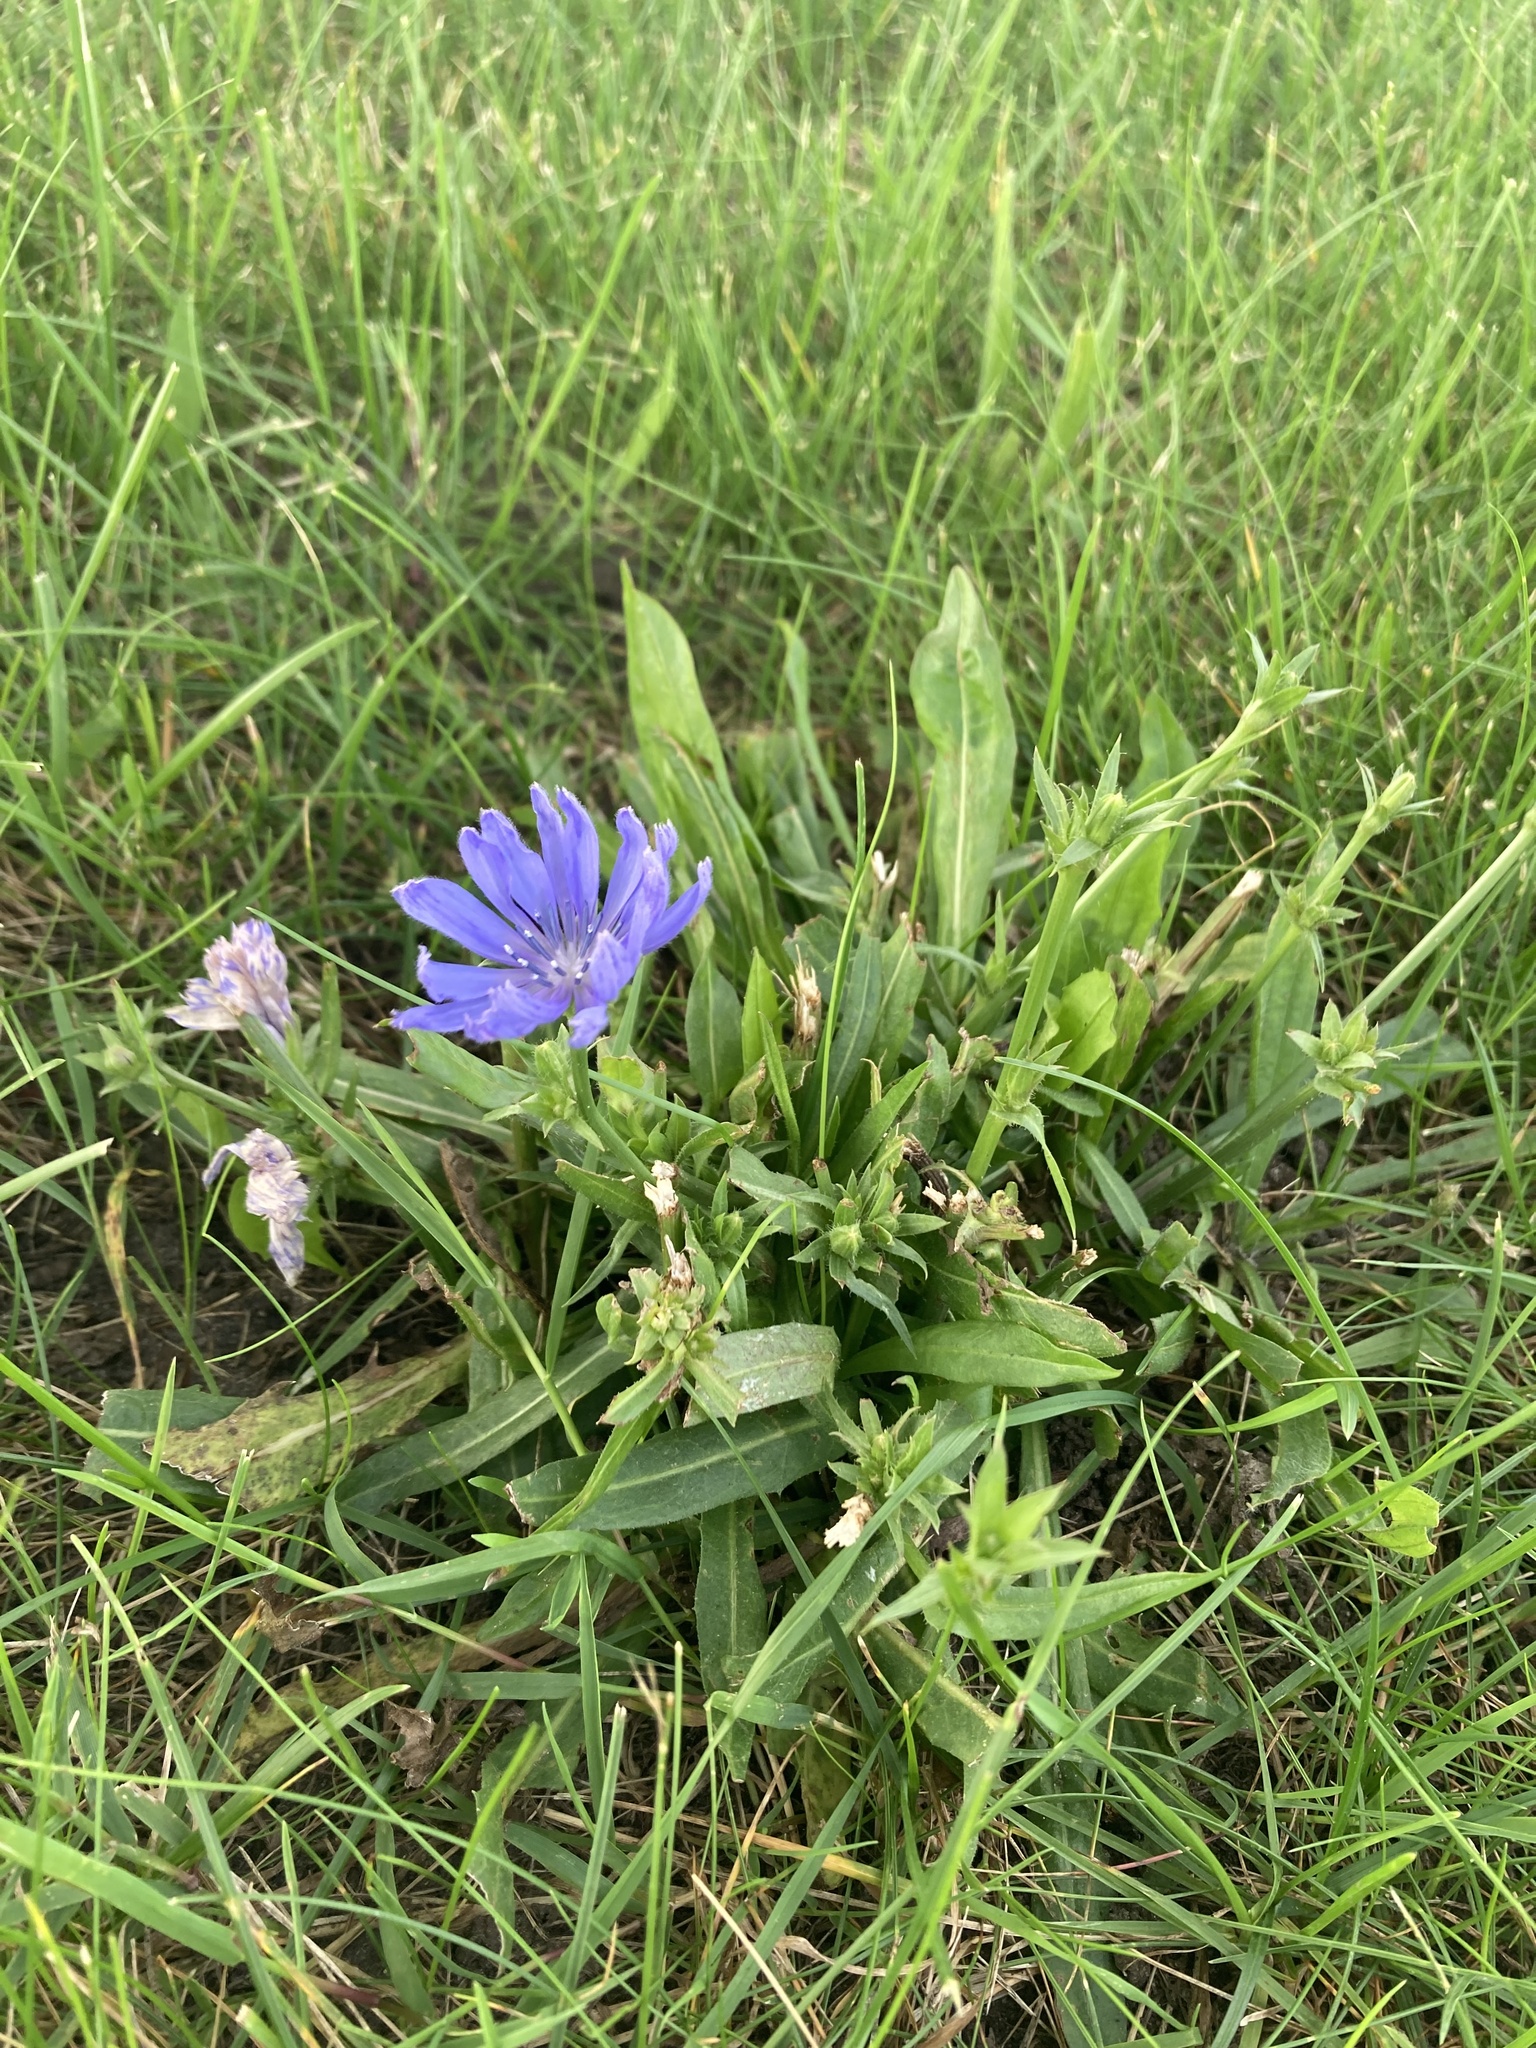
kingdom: Plantae
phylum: Tracheophyta
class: Magnoliopsida
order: Asterales
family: Asteraceae
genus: Cichorium
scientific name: Cichorium intybus
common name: Chicory
